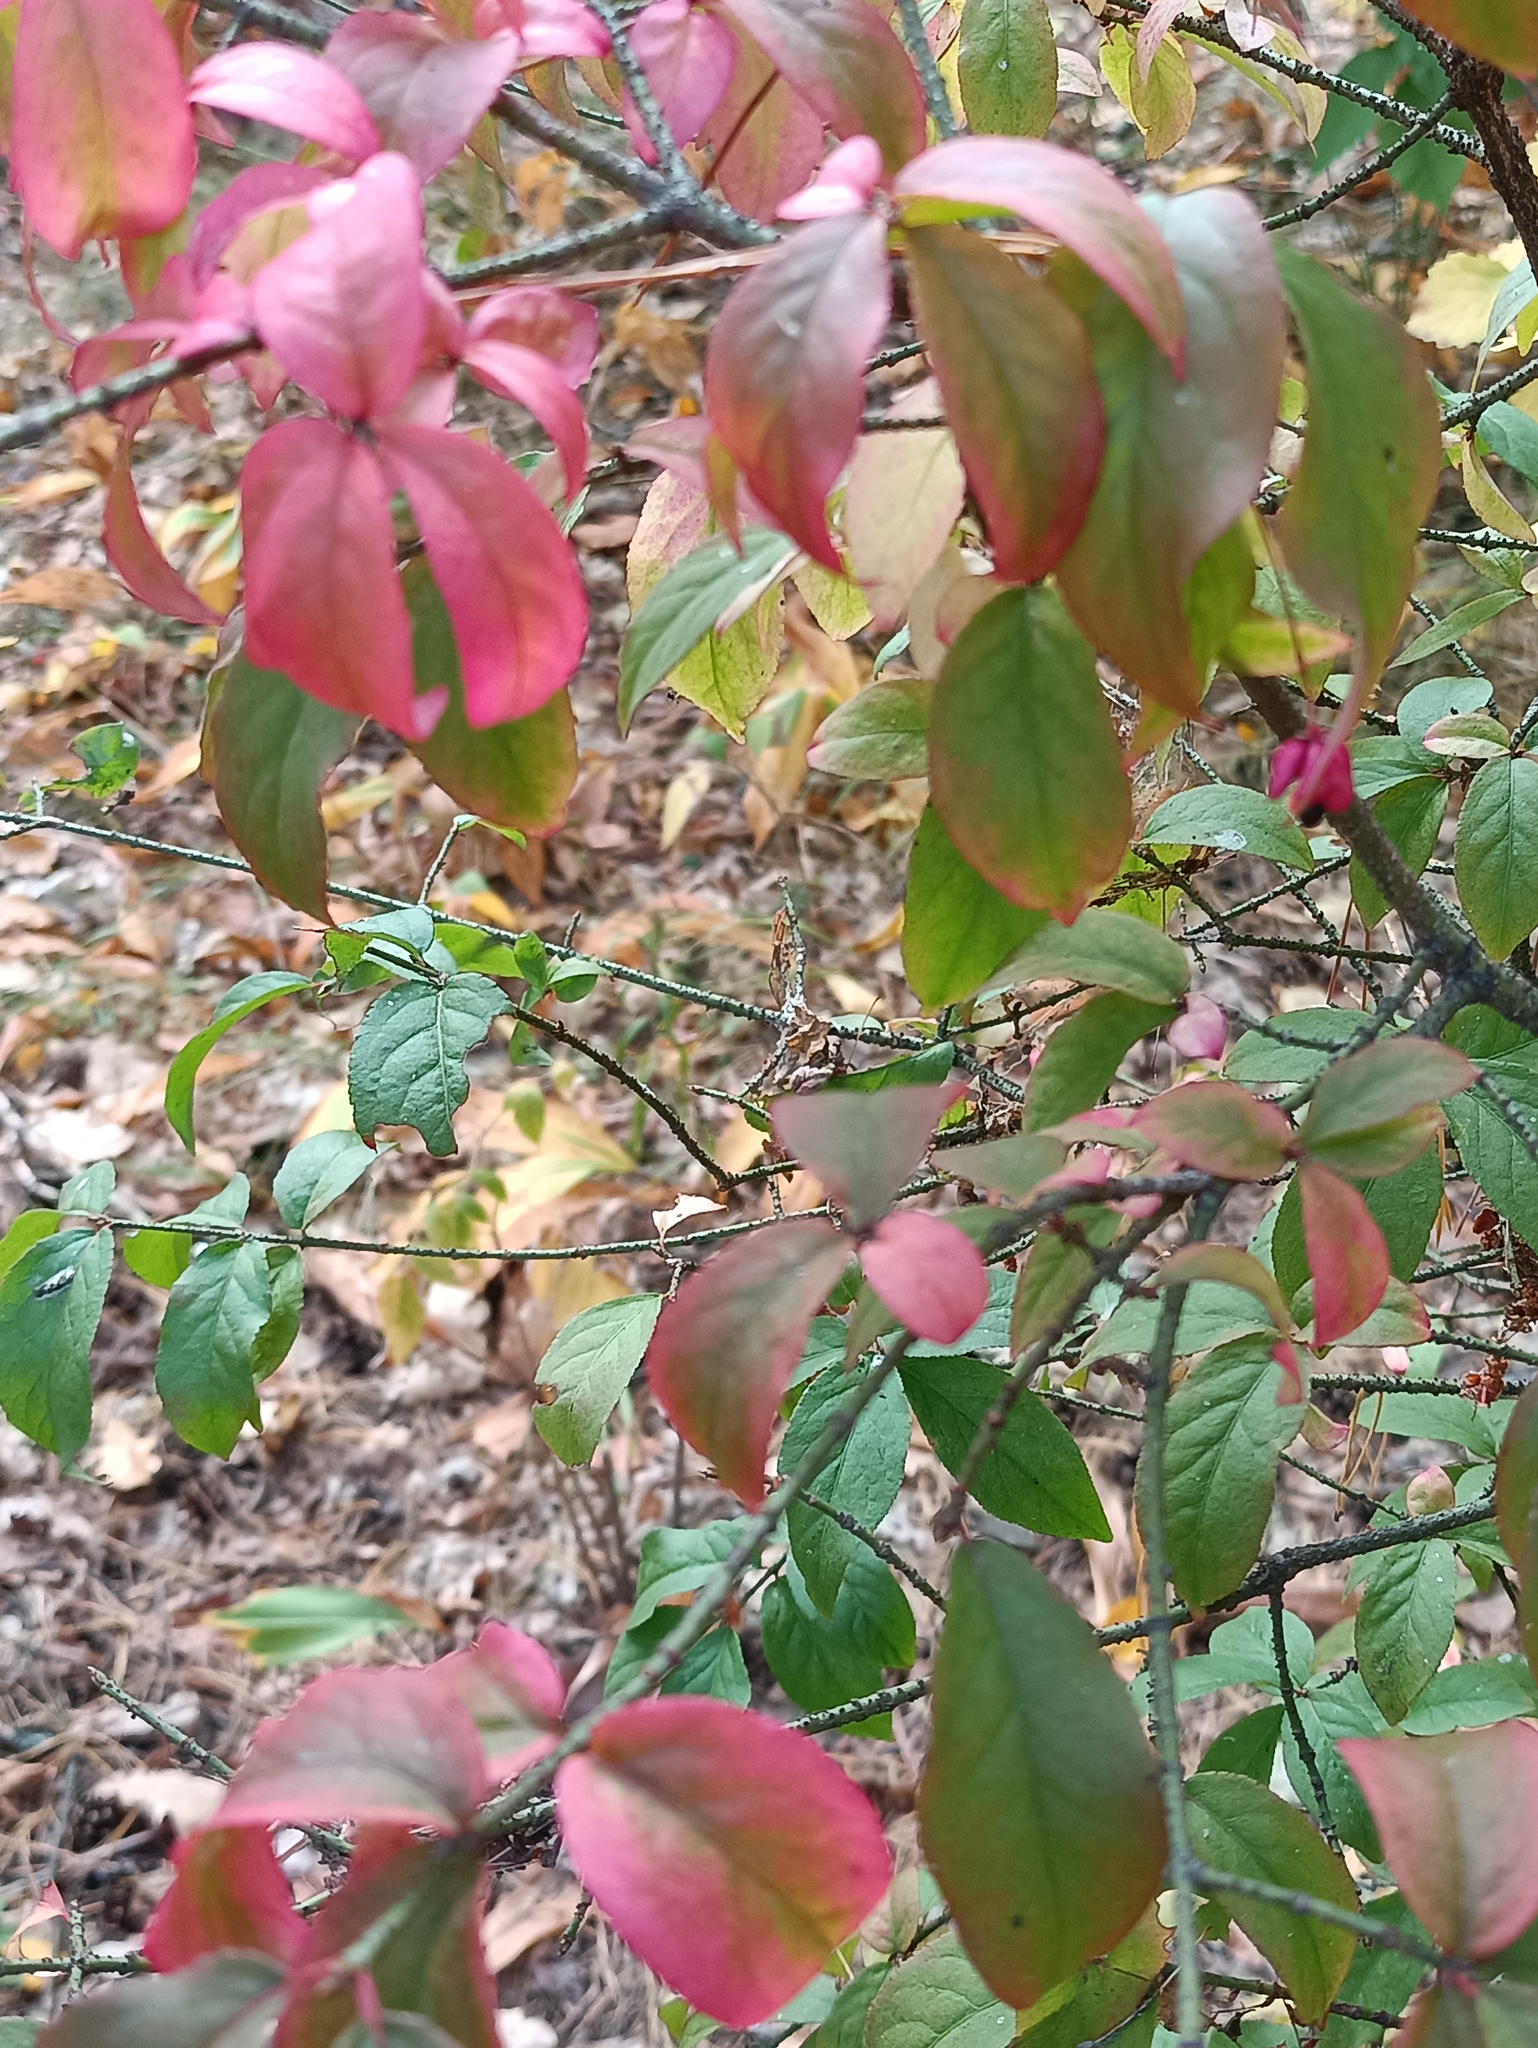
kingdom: Plantae
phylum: Tracheophyta
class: Magnoliopsida
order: Celastrales
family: Celastraceae
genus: Euonymus
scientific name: Euonymus verrucosus
